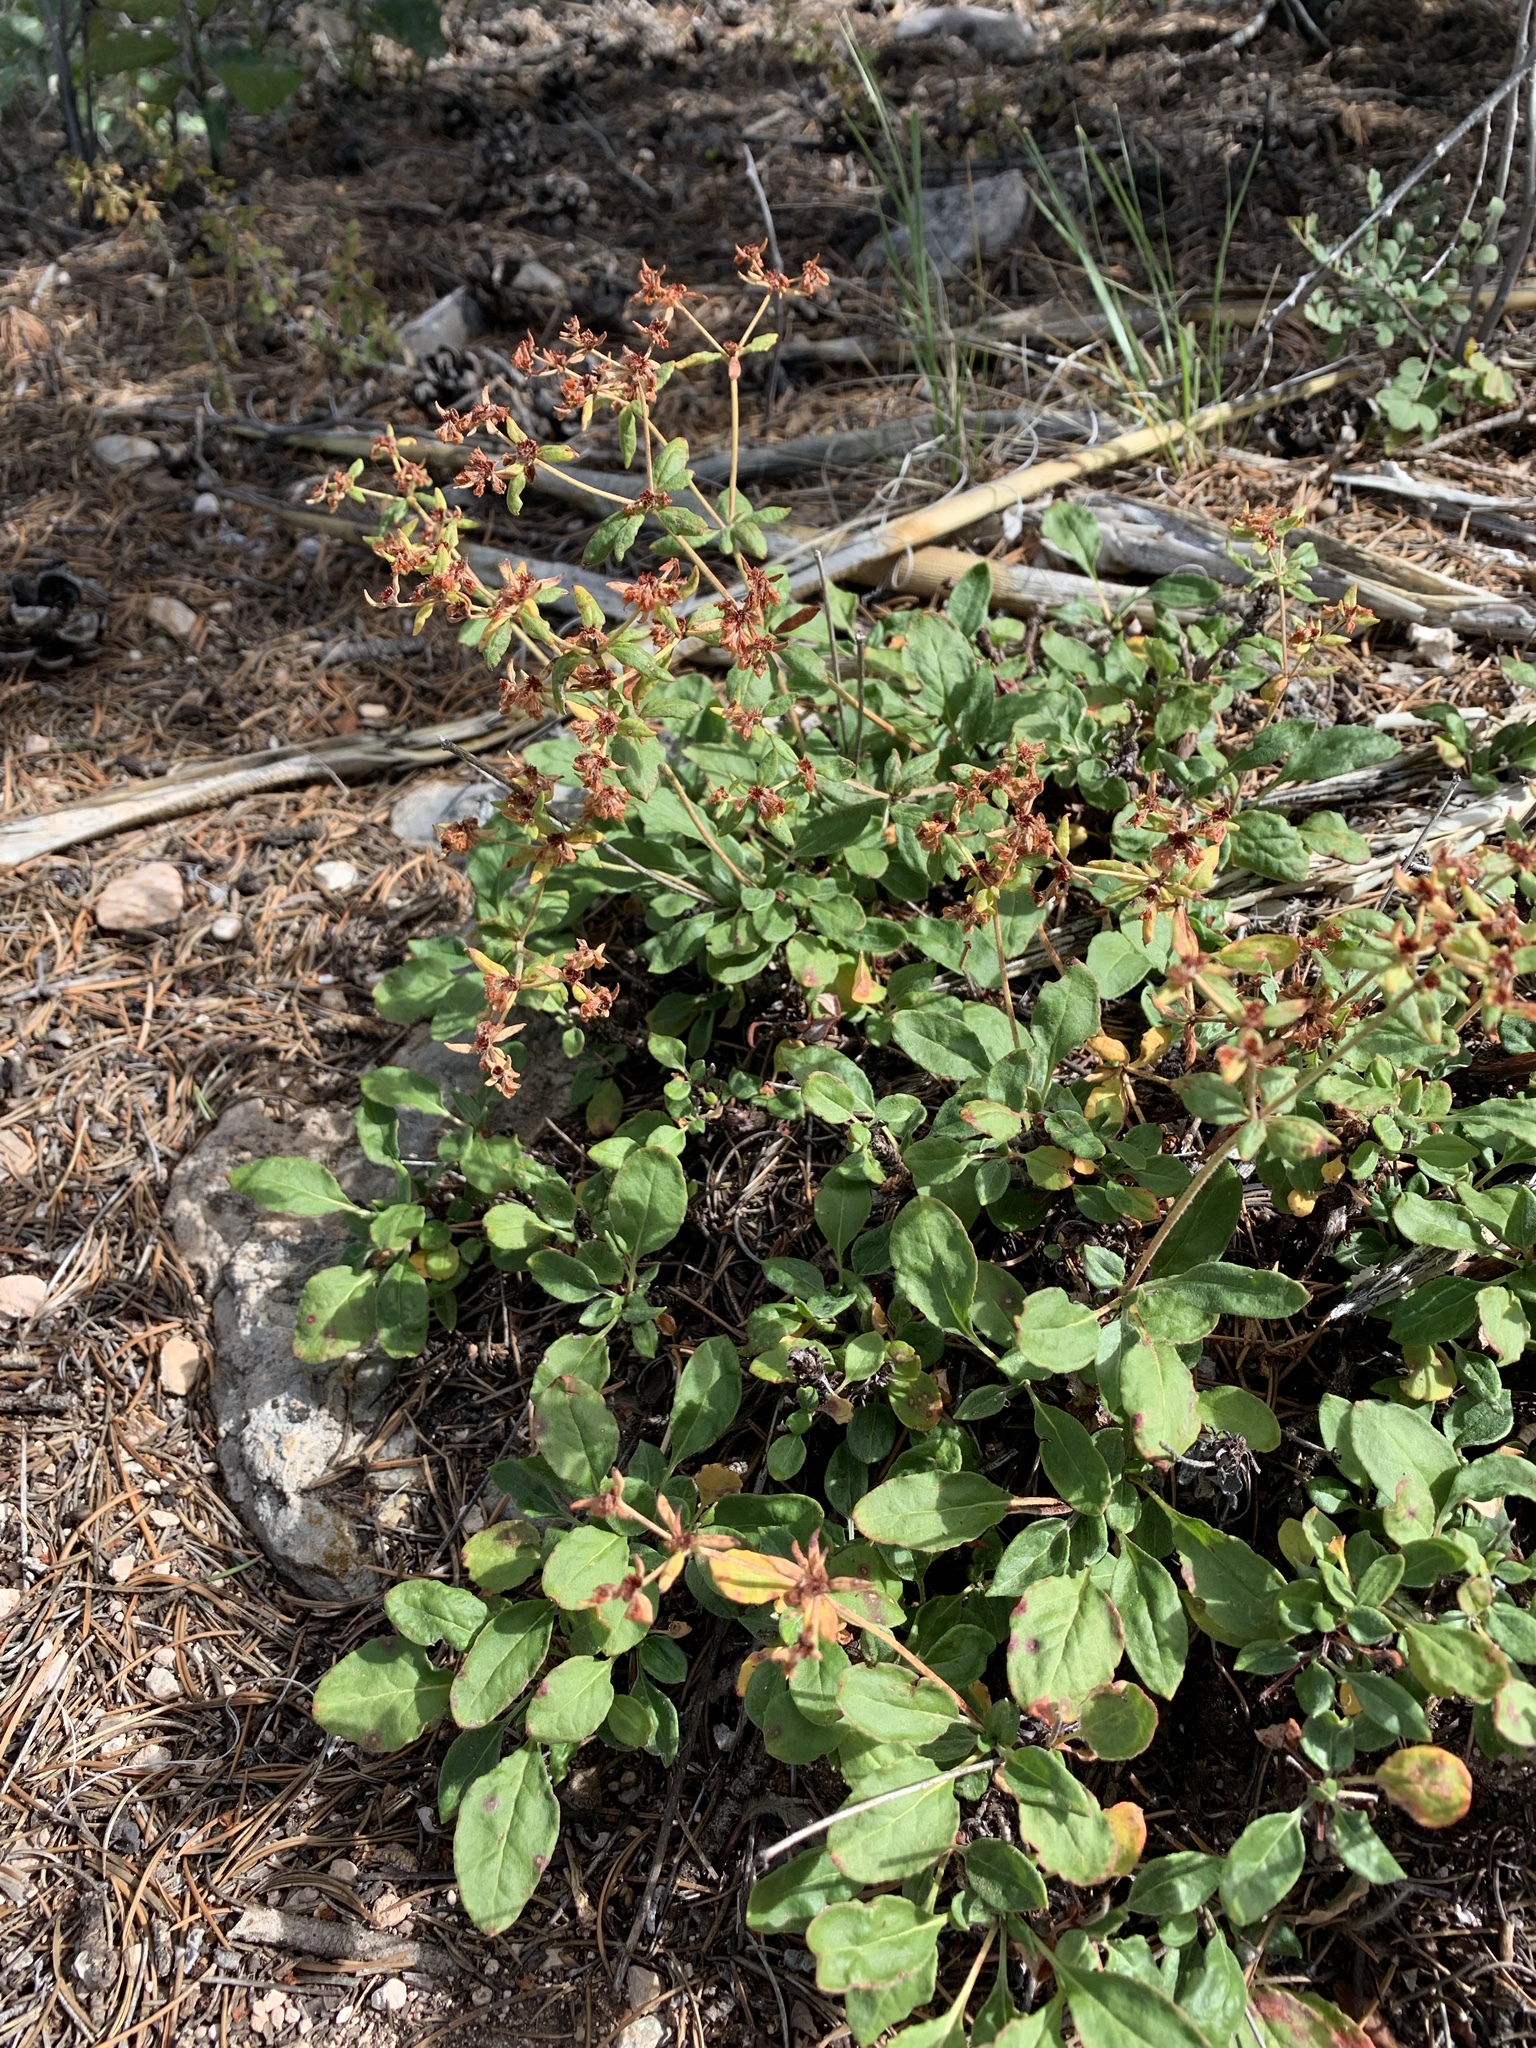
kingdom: Plantae
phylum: Tracheophyta
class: Magnoliopsida
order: Caryophyllales
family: Polygonaceae
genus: Eriogonum
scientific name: Eriogonum wootonii
